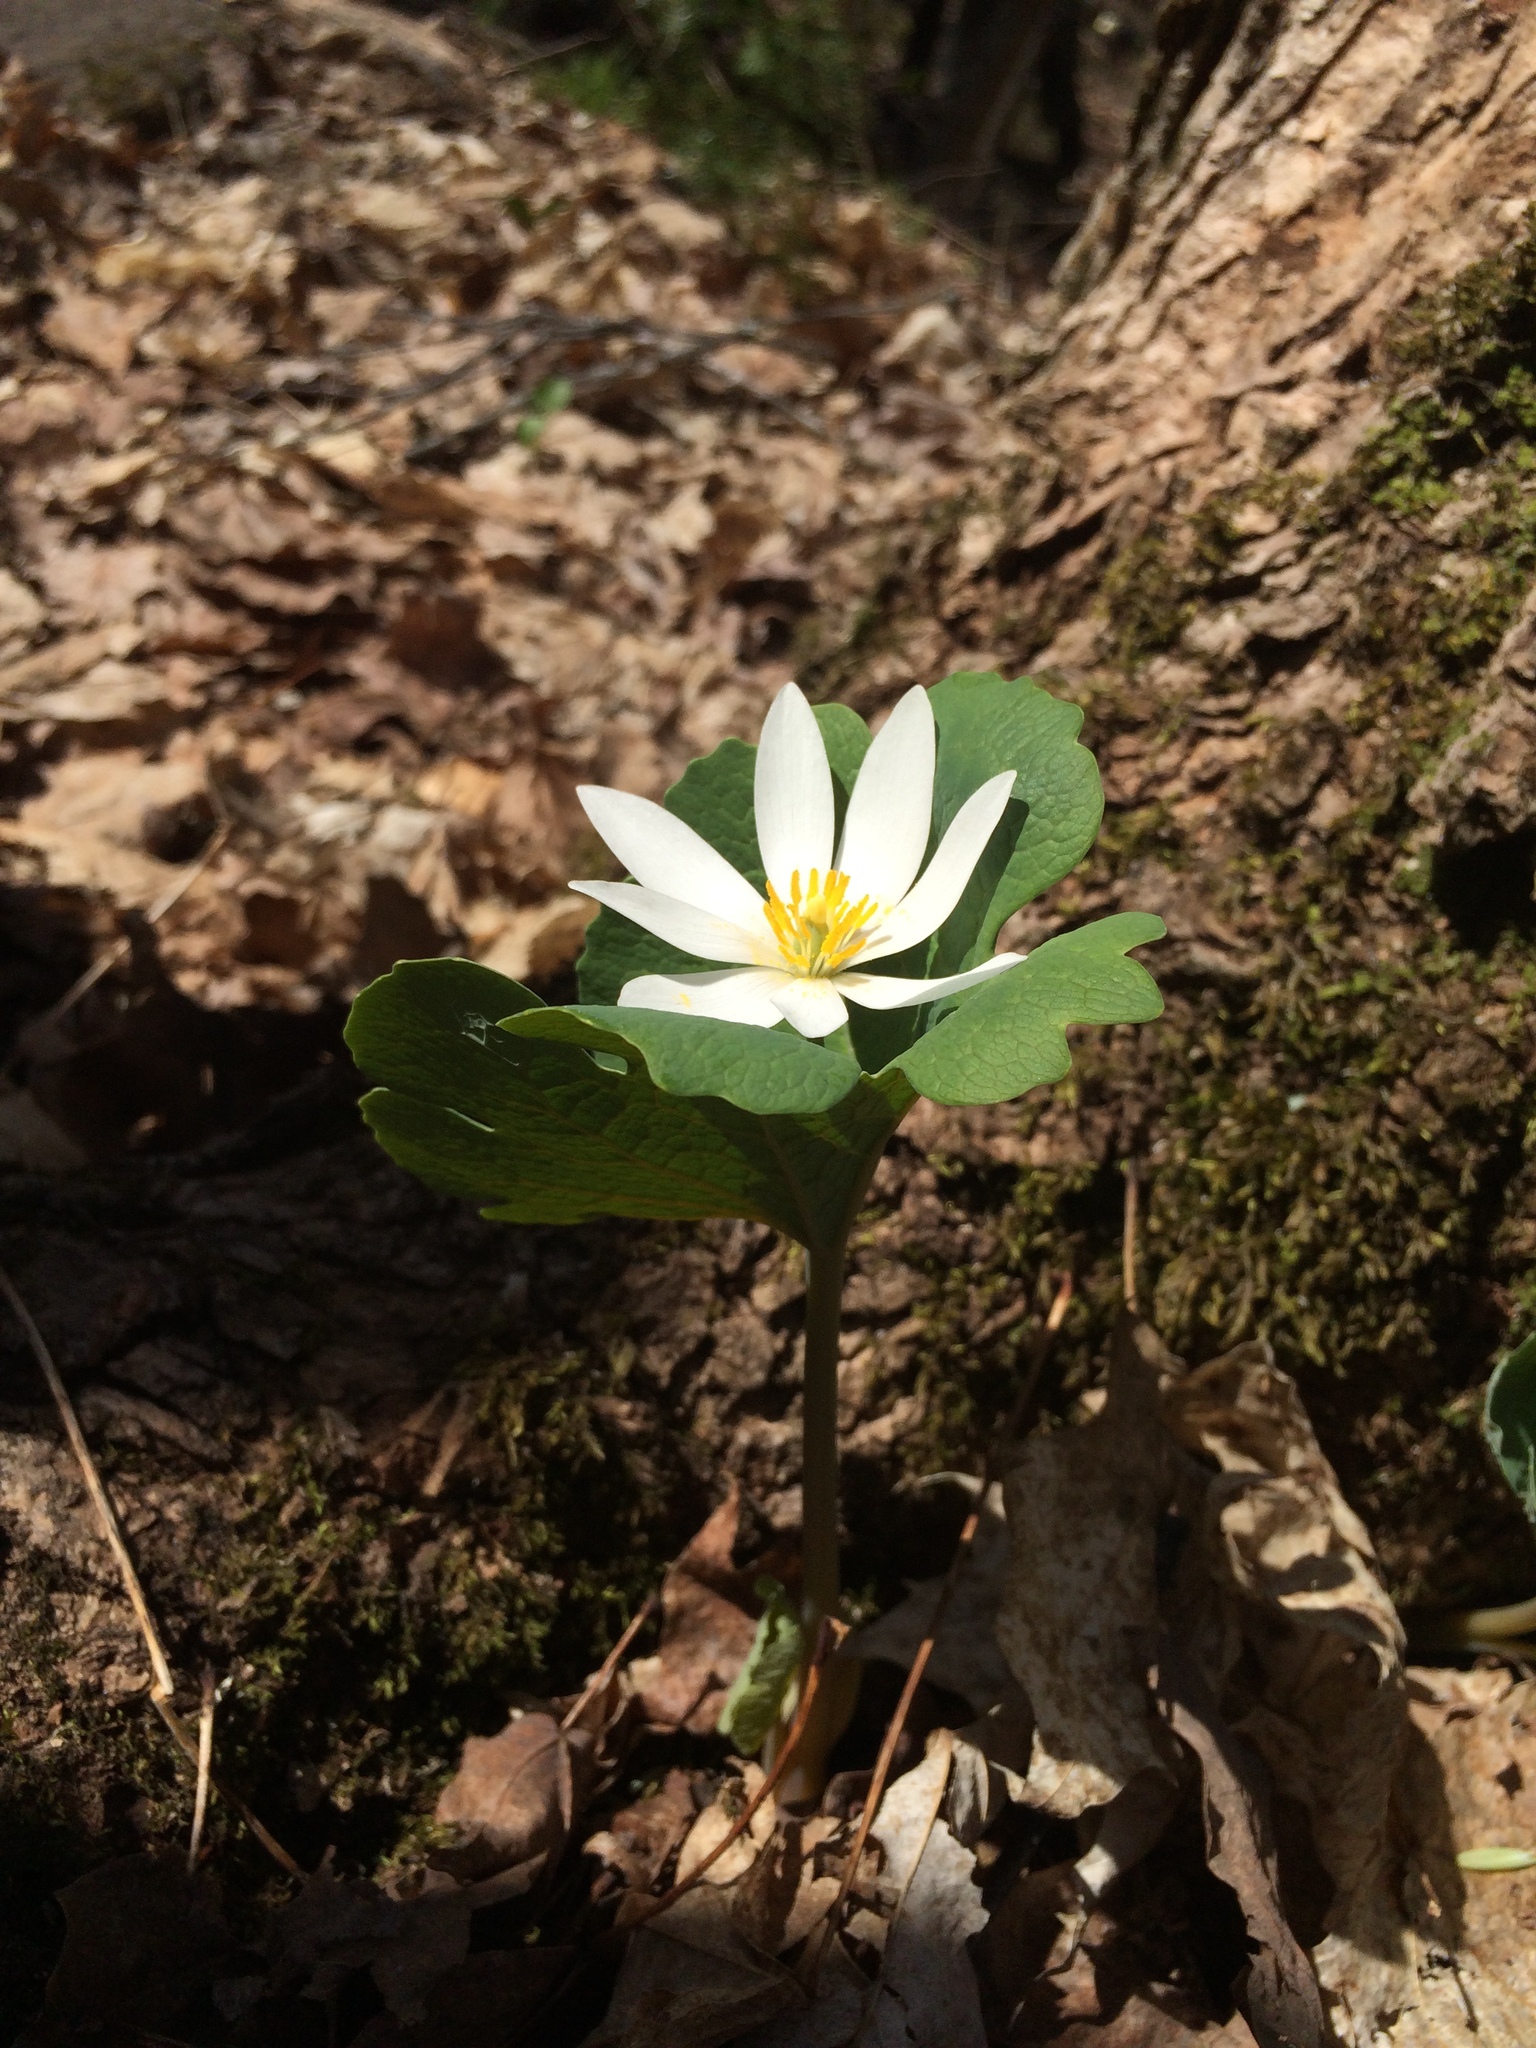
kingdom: Plantae
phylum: Tracheophyta
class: Magnoliopsida
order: Ranunculales
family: Papaveraceae
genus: Sanguinaria
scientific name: Sanguinaria canadensis
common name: Bloodroot
